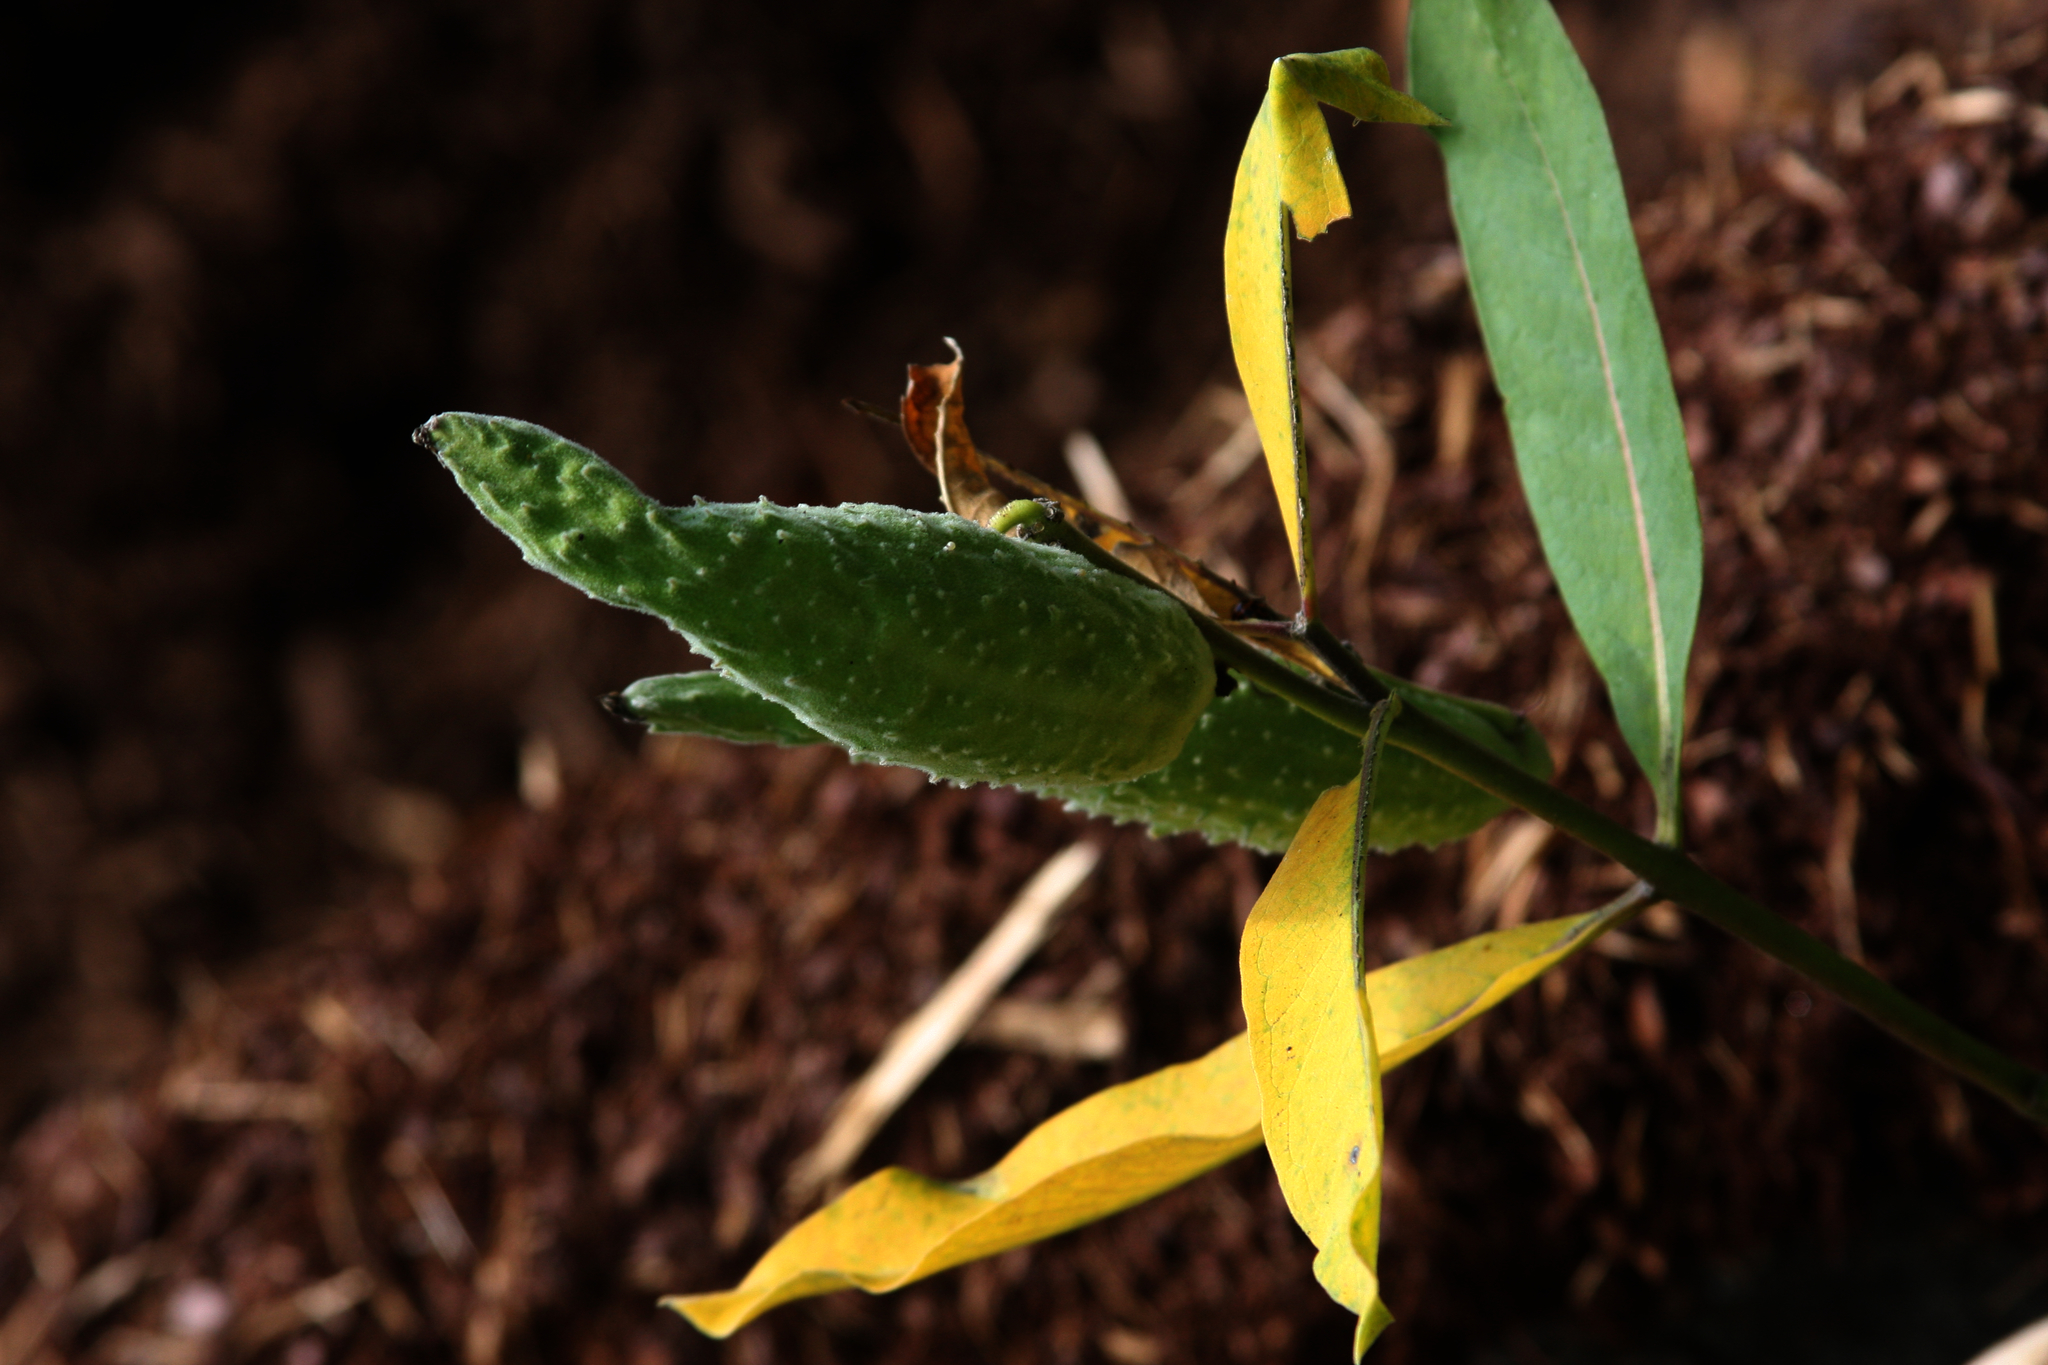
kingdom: Plantae
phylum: Tracheophyta
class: Magnoliopsida
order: Gentianales
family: Apocynaceae
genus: Asclepias
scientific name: Asclepias syriaca
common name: Common milkweed
